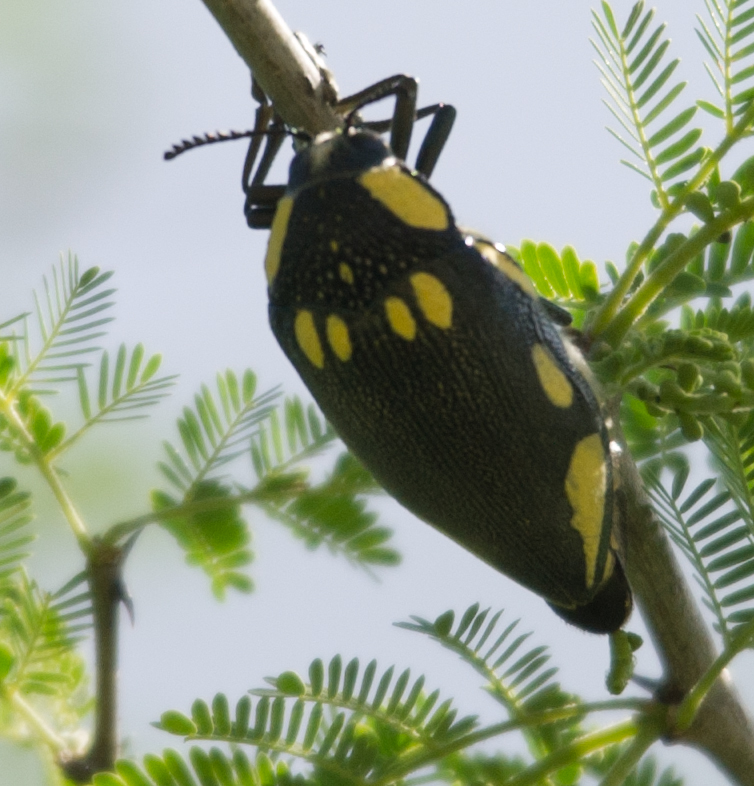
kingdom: Animalia
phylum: Arthropoda
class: Insecta
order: Coleoptera
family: Buprestidae
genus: Sternocera
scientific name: Sternocera orissa
